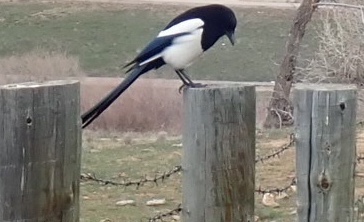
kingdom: Animalia
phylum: Chordata
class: Aves
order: Passeriformes
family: Corvidae
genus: Pica
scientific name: Pica hudsonia
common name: Black-billed magpie
